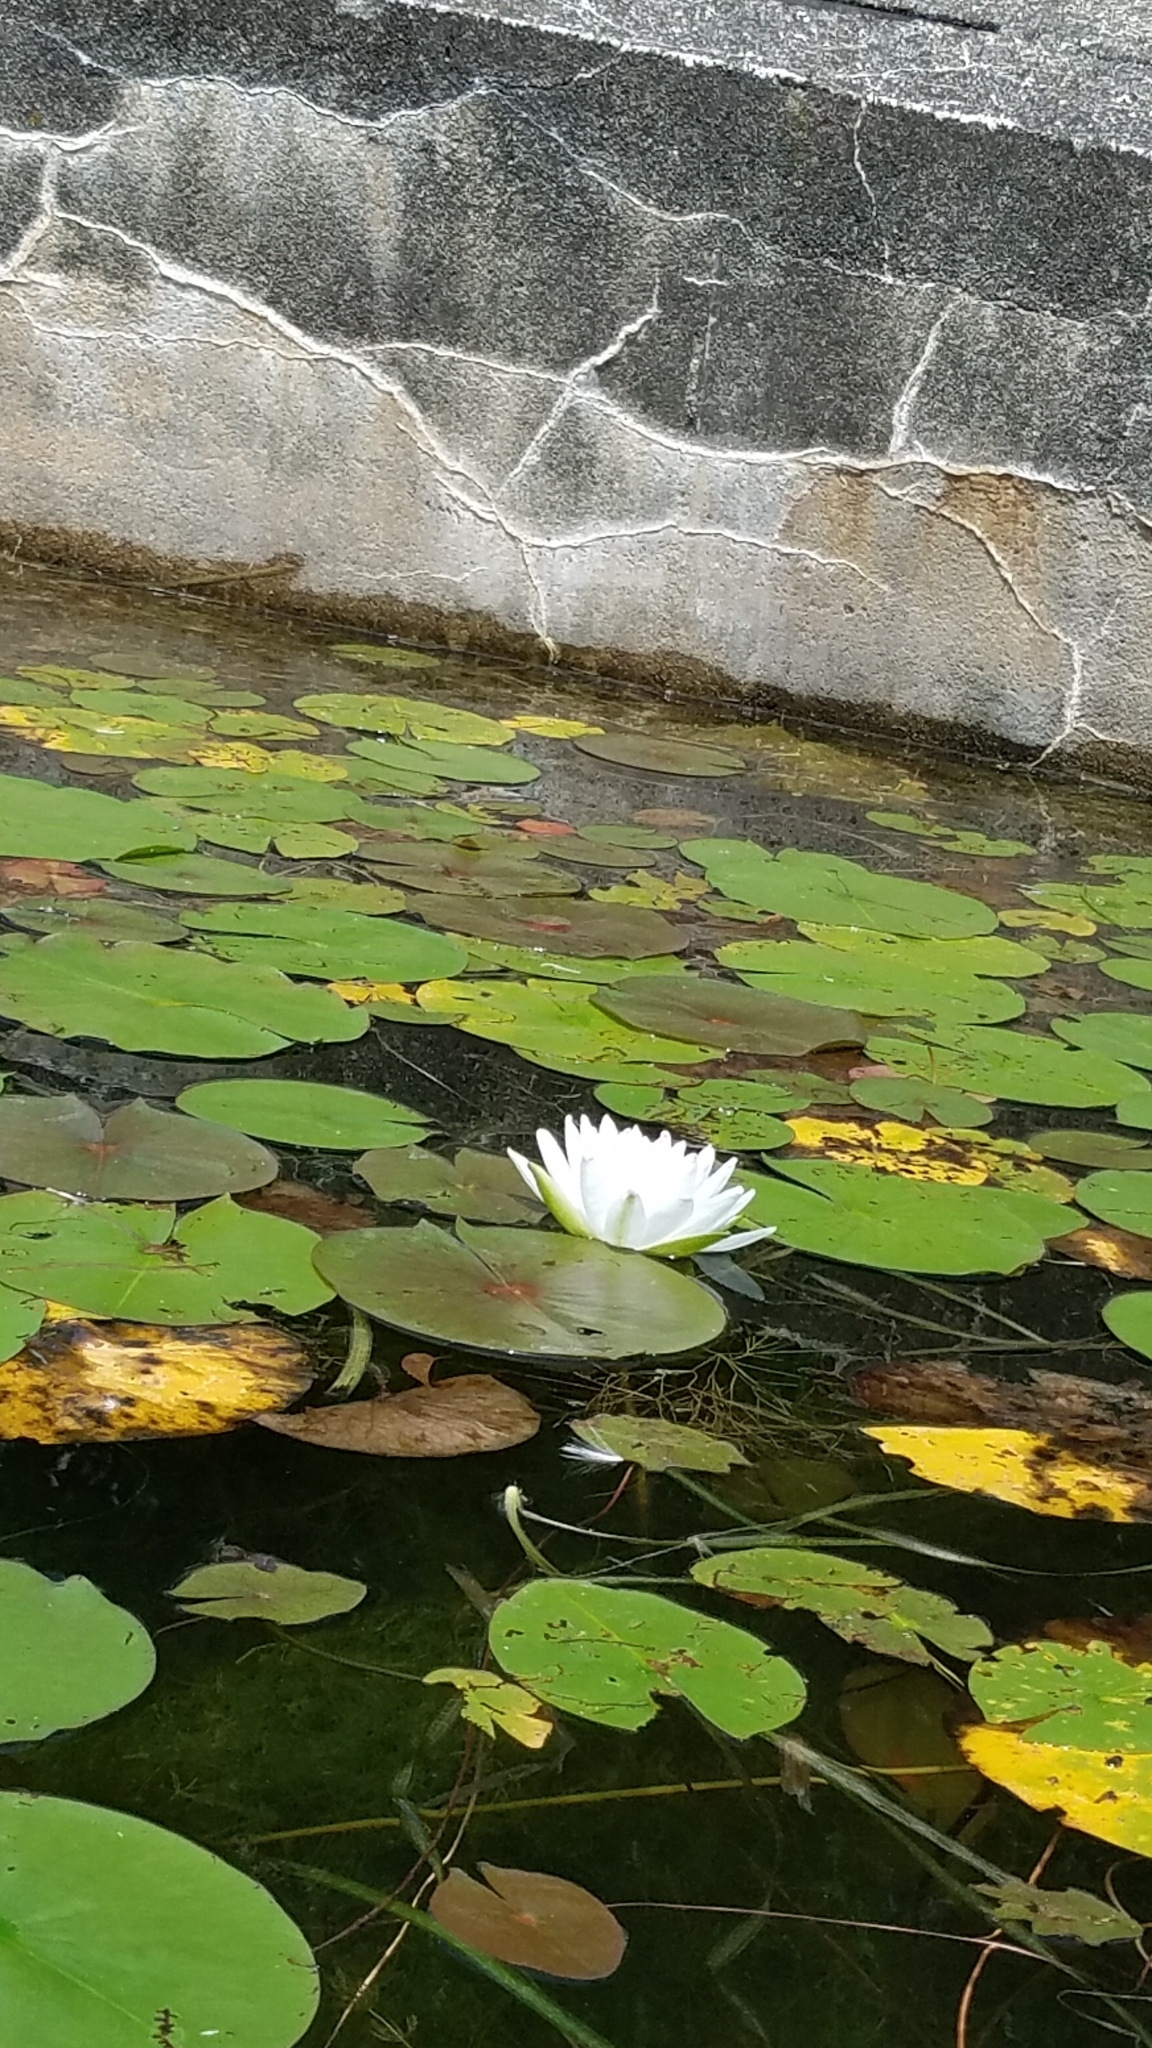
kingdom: Plantae
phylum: Tracheophyta
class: Magnoliopsida
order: Nymphaeales
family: Nymphaeaceae
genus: Nymphaea
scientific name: Nymphaea odorata
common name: Fragrant water-lily
